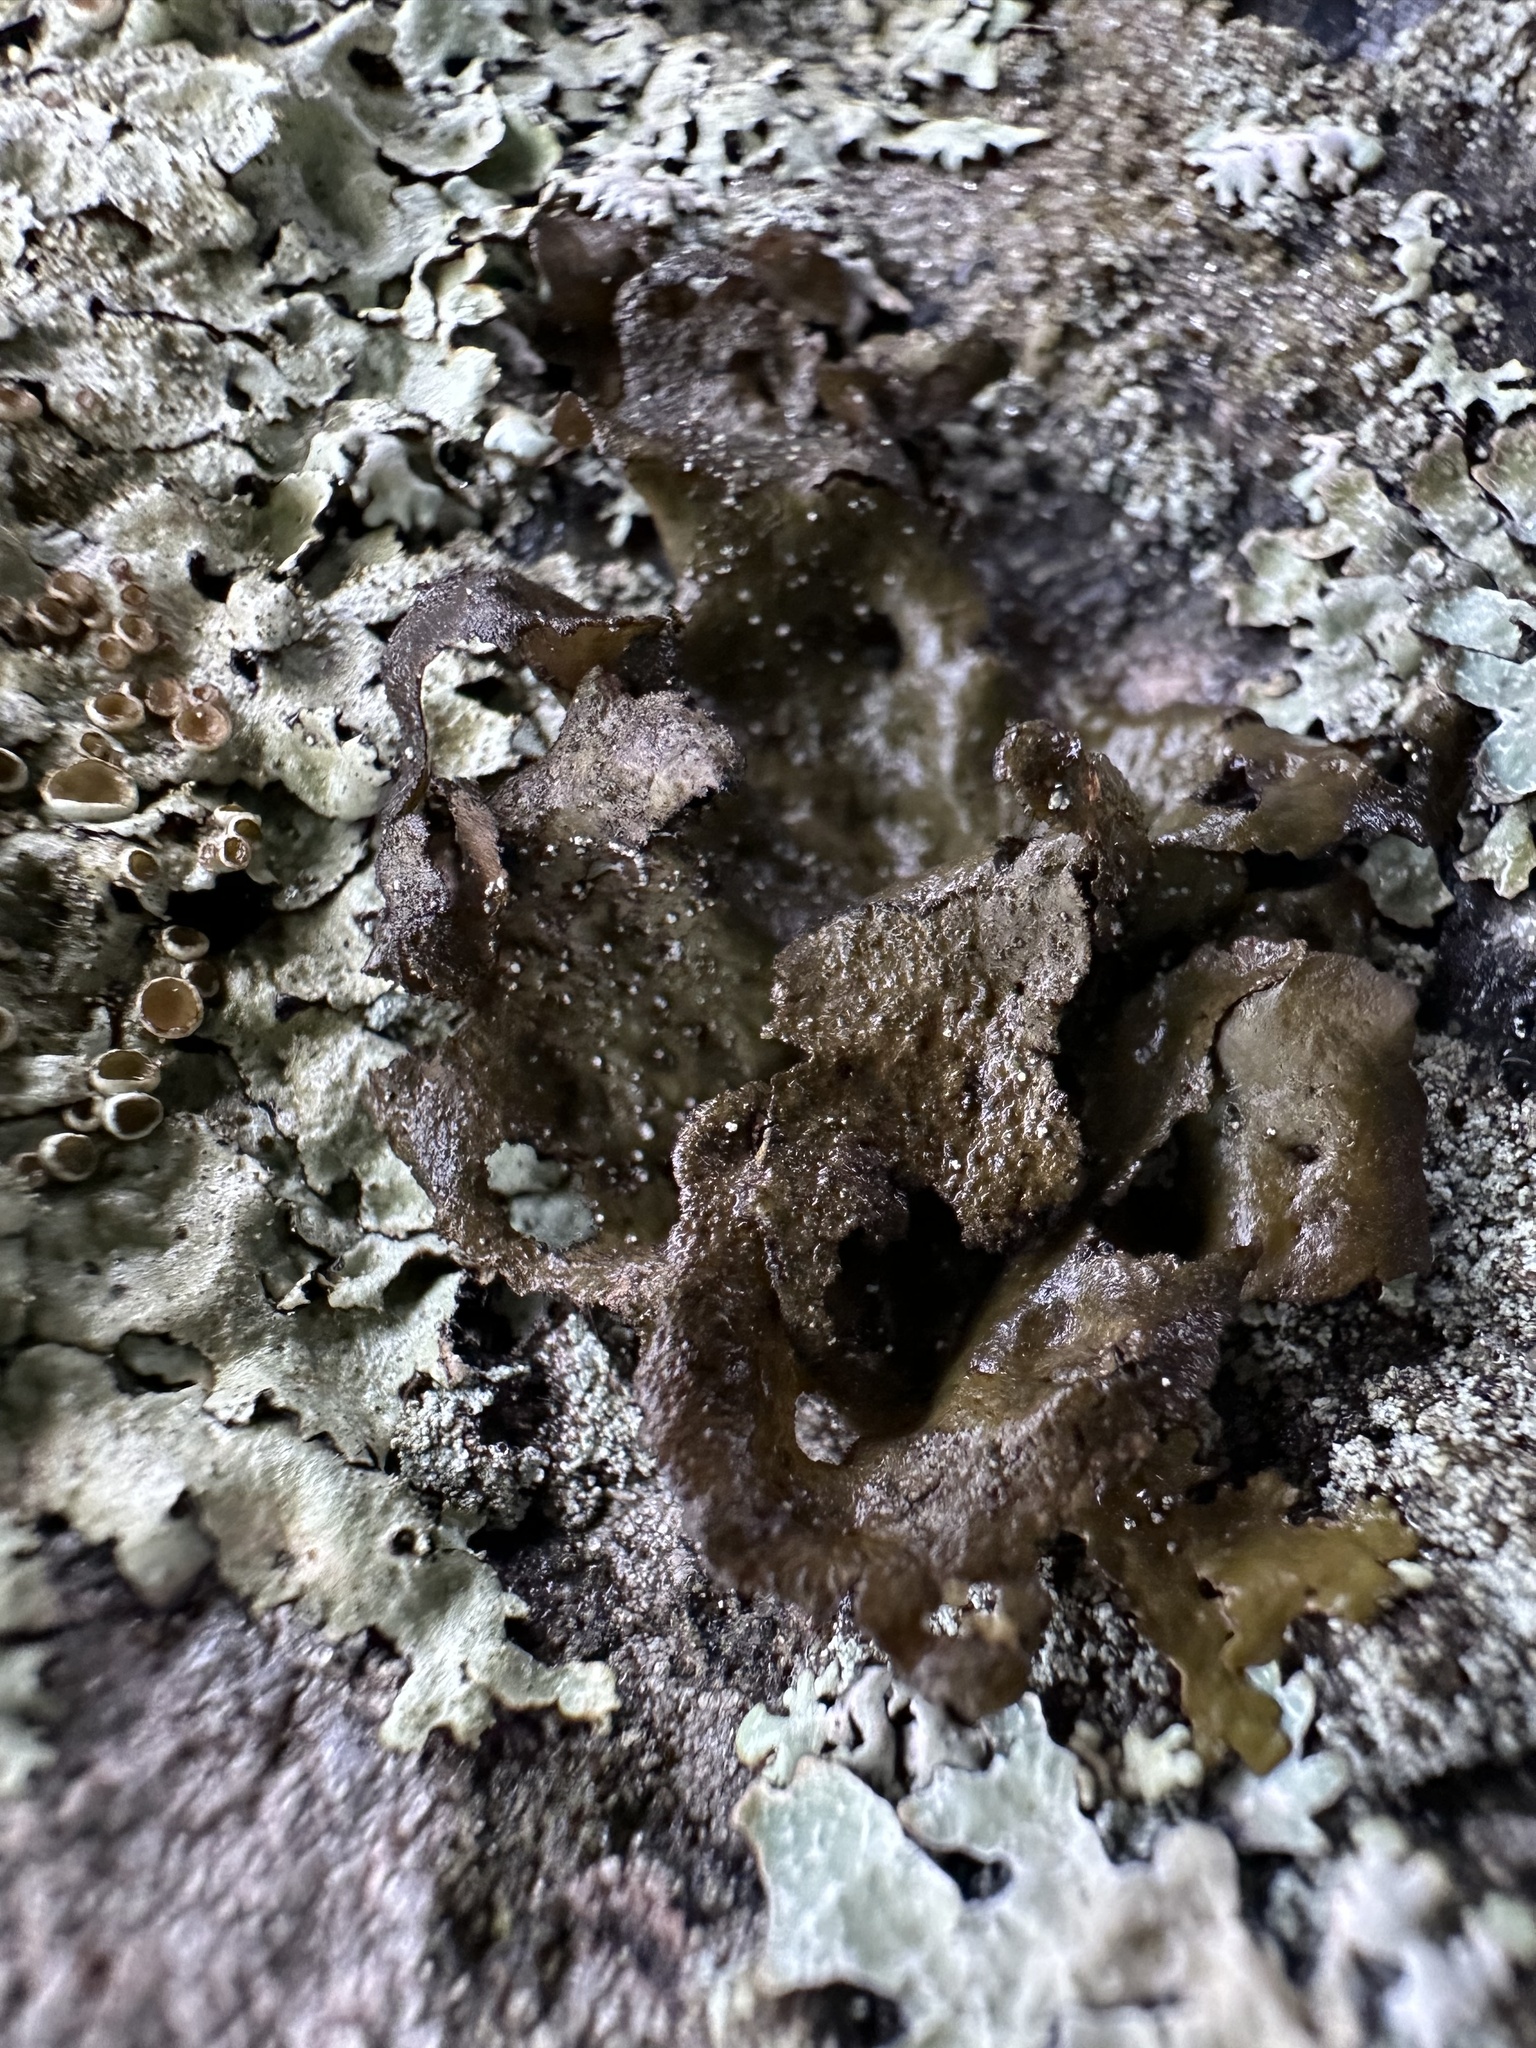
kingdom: Fungi
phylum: Ascomycota
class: Lecanoromycetes
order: Umbilicariales
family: Umbilicariaceae
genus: Umbilicaria
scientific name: Umbilicaria deusta
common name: Peppered rock tripe
